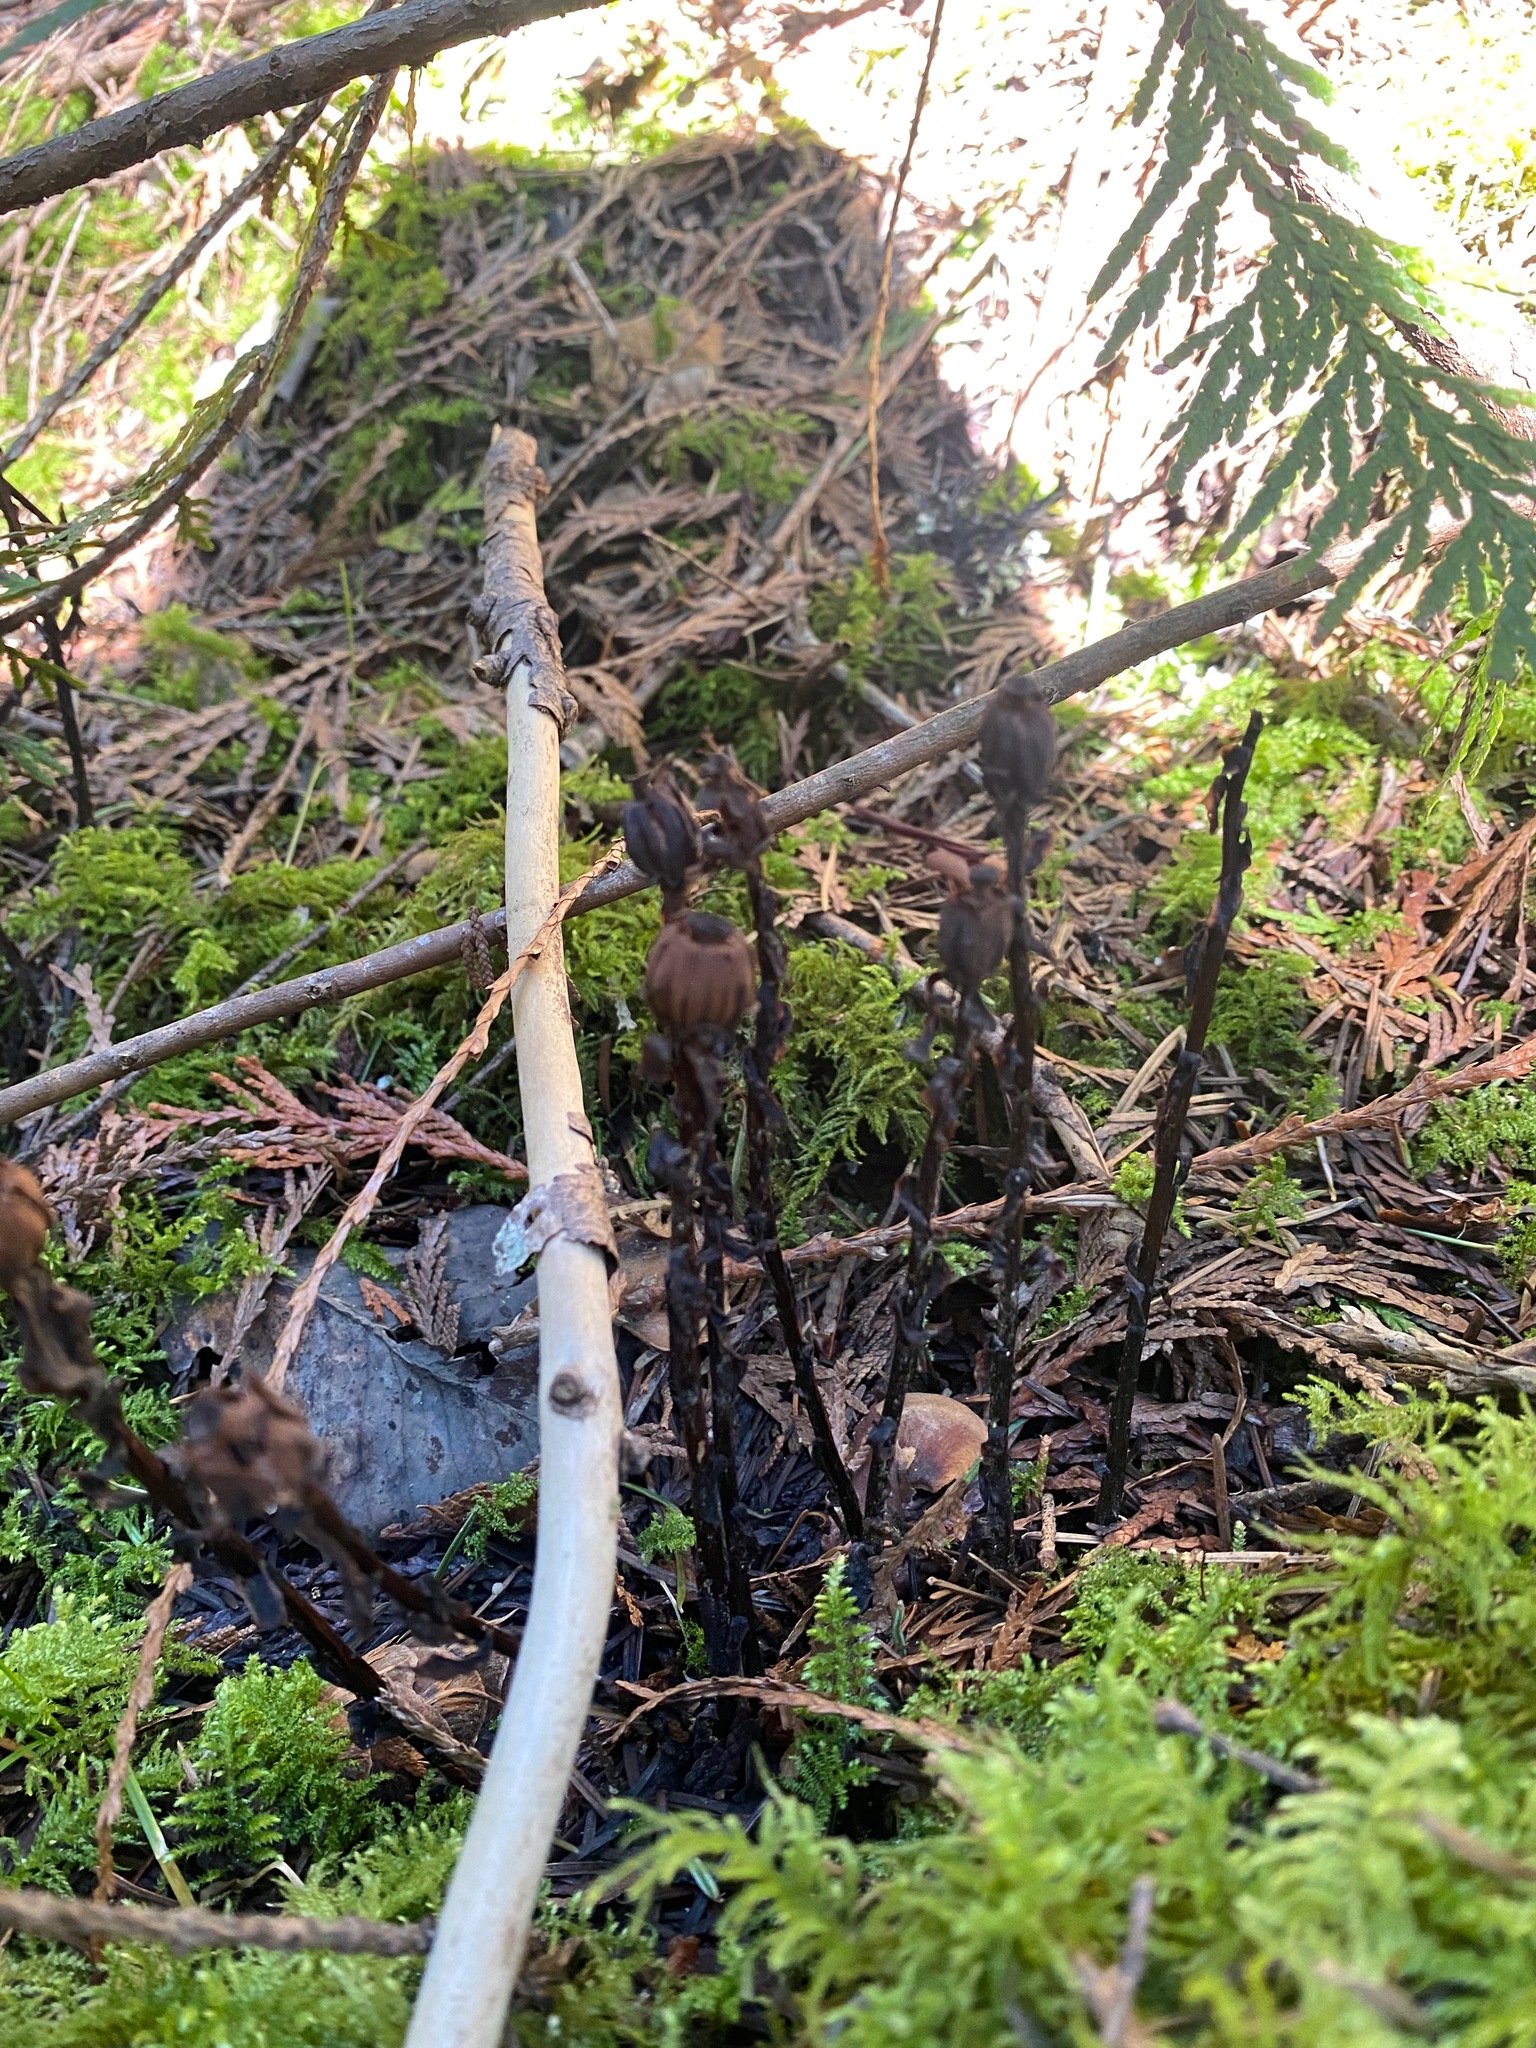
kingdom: Plantae
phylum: Tracheophyta
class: Magnoliopsida
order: Ericales
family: Ericaceae
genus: Monotropa
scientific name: Monotropa uniflora
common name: Convulsion root
